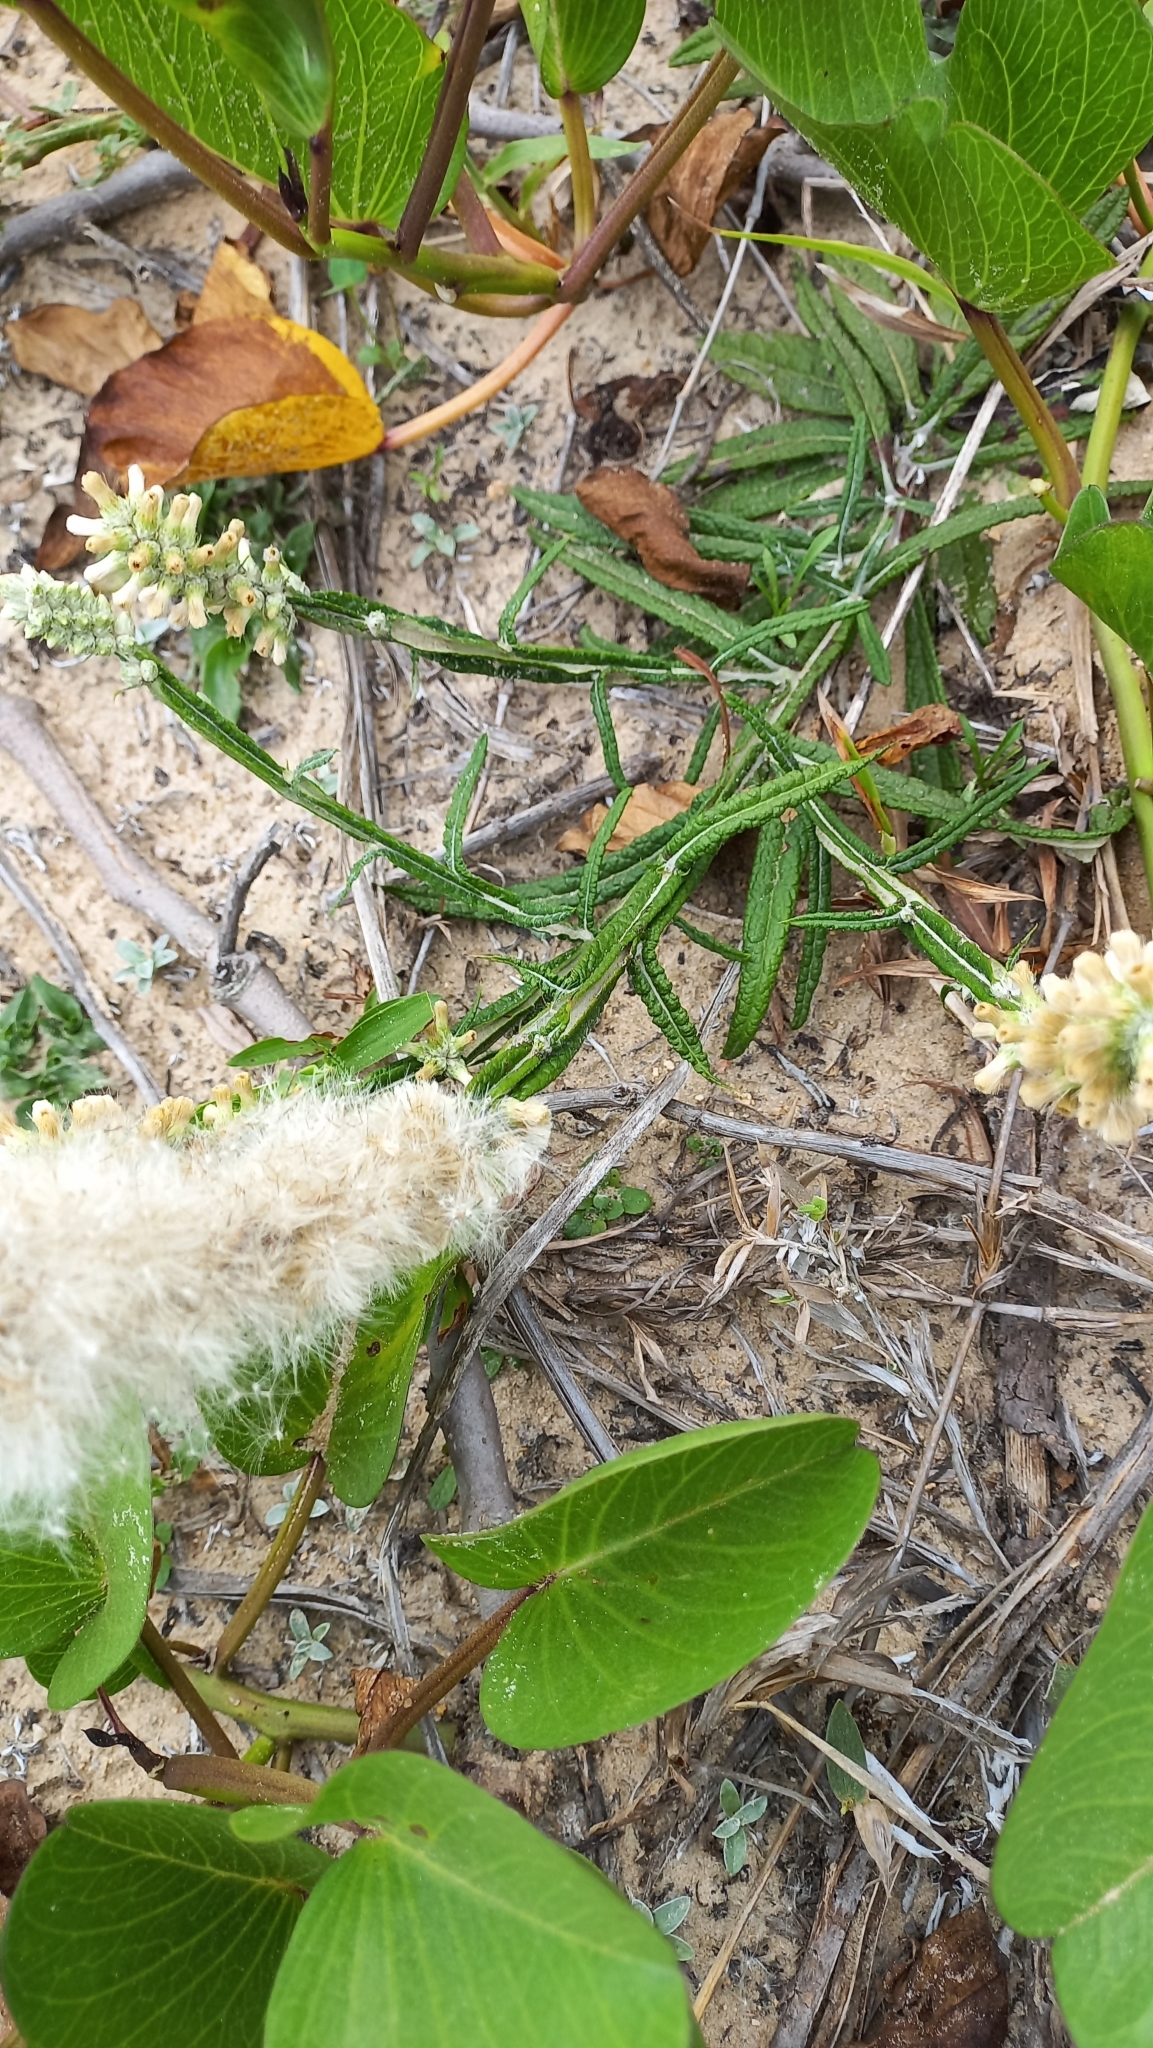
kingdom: Plantae
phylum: Tracheophyta
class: Magnoliopsida
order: Asterales
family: Asteraceae
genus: Pterocaulon
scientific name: Pterocaulon lorentzii
